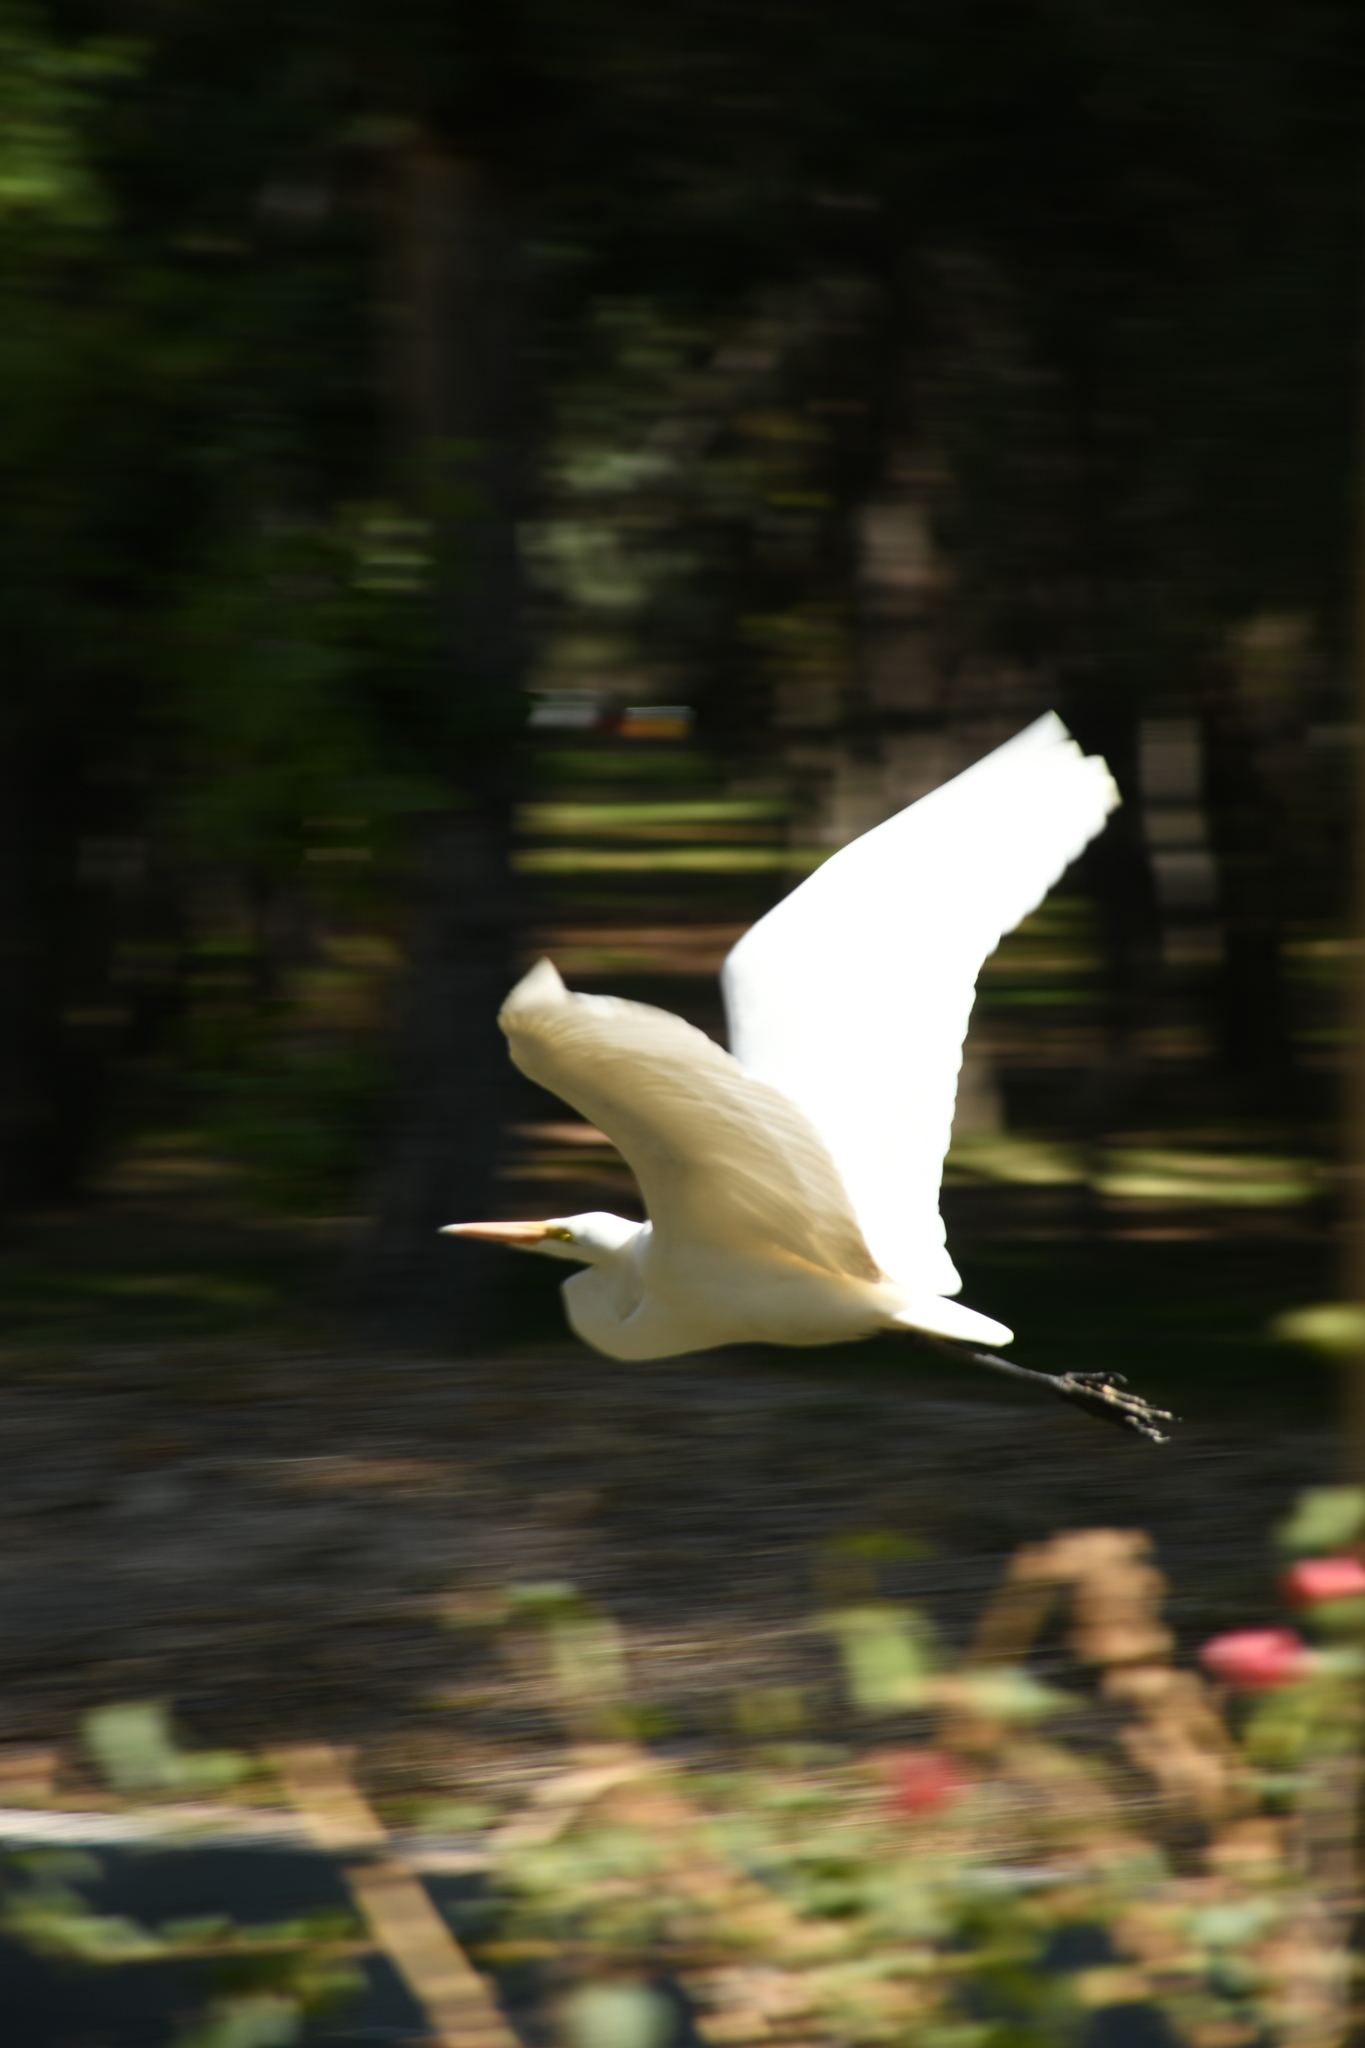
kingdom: Animalia
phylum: Chordata
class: Aves
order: Pelecaniformes
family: Ardeidae
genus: Ardea
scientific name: Ardea alba
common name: Great egret
